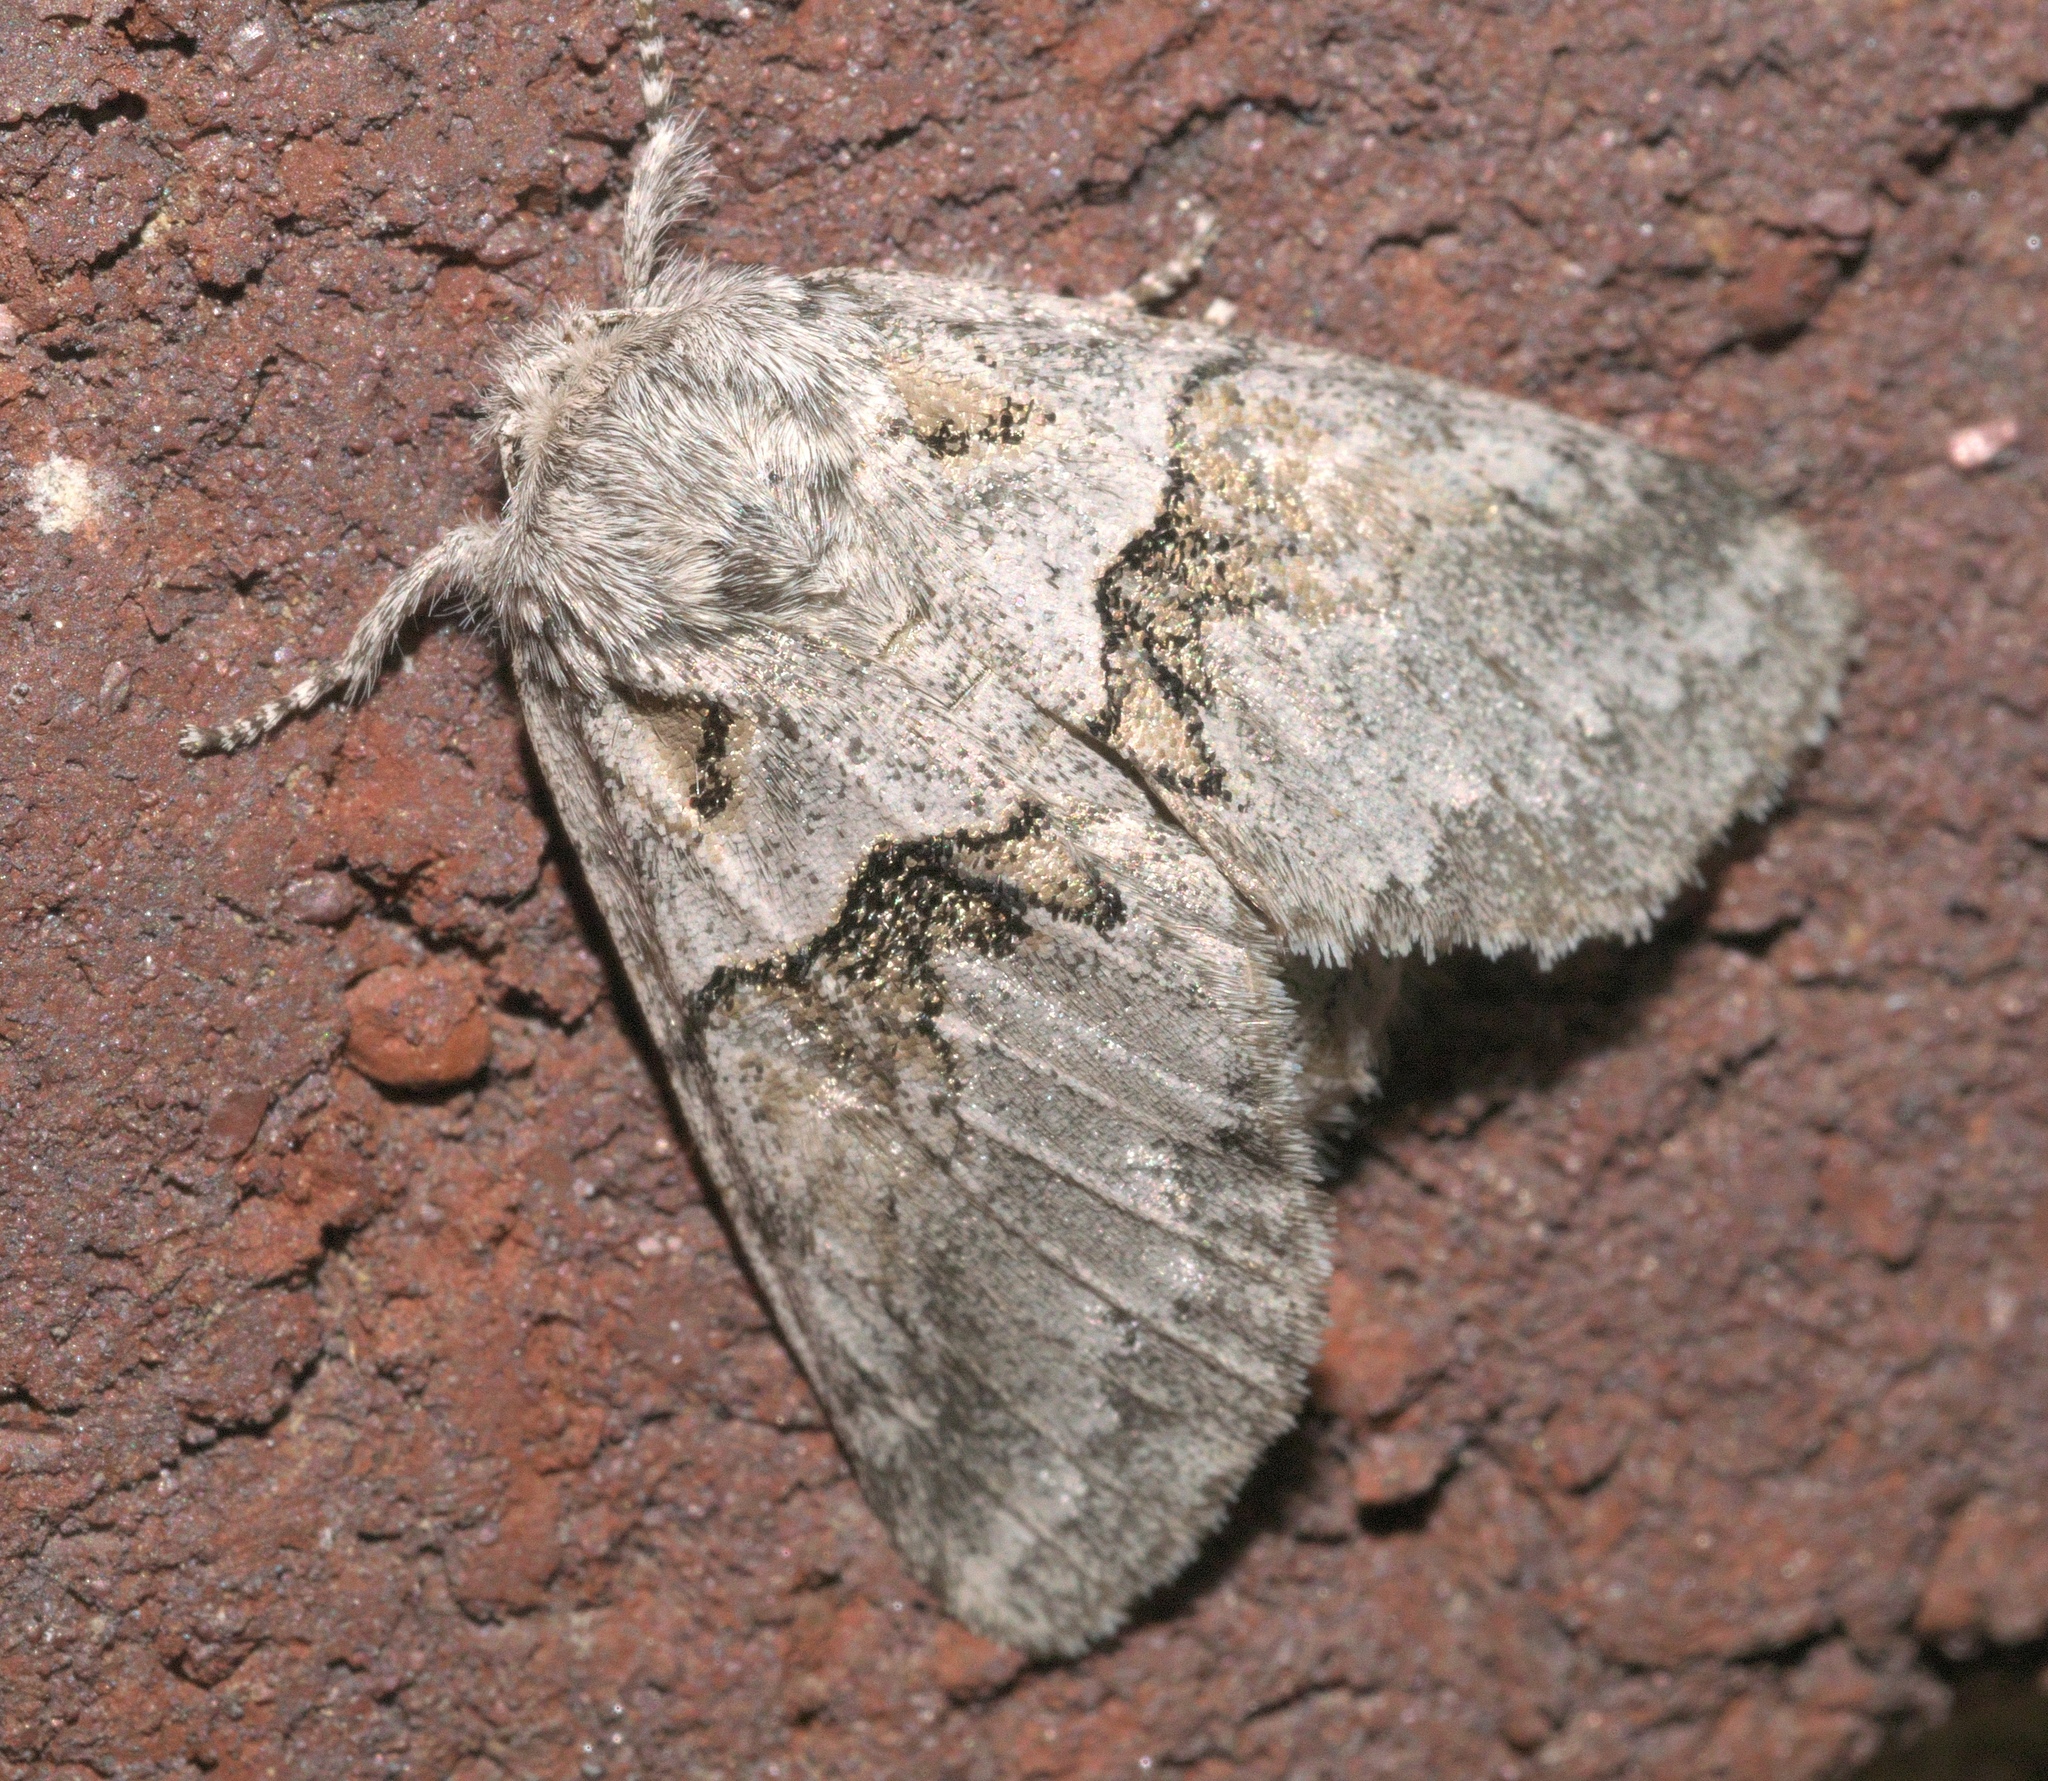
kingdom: Animalia
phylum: Arthropoda
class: Insecta
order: Lepidoptera
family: Notodontidae
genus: Gluphisia
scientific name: Gluphisia septentrionis
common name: Common gluphisia
